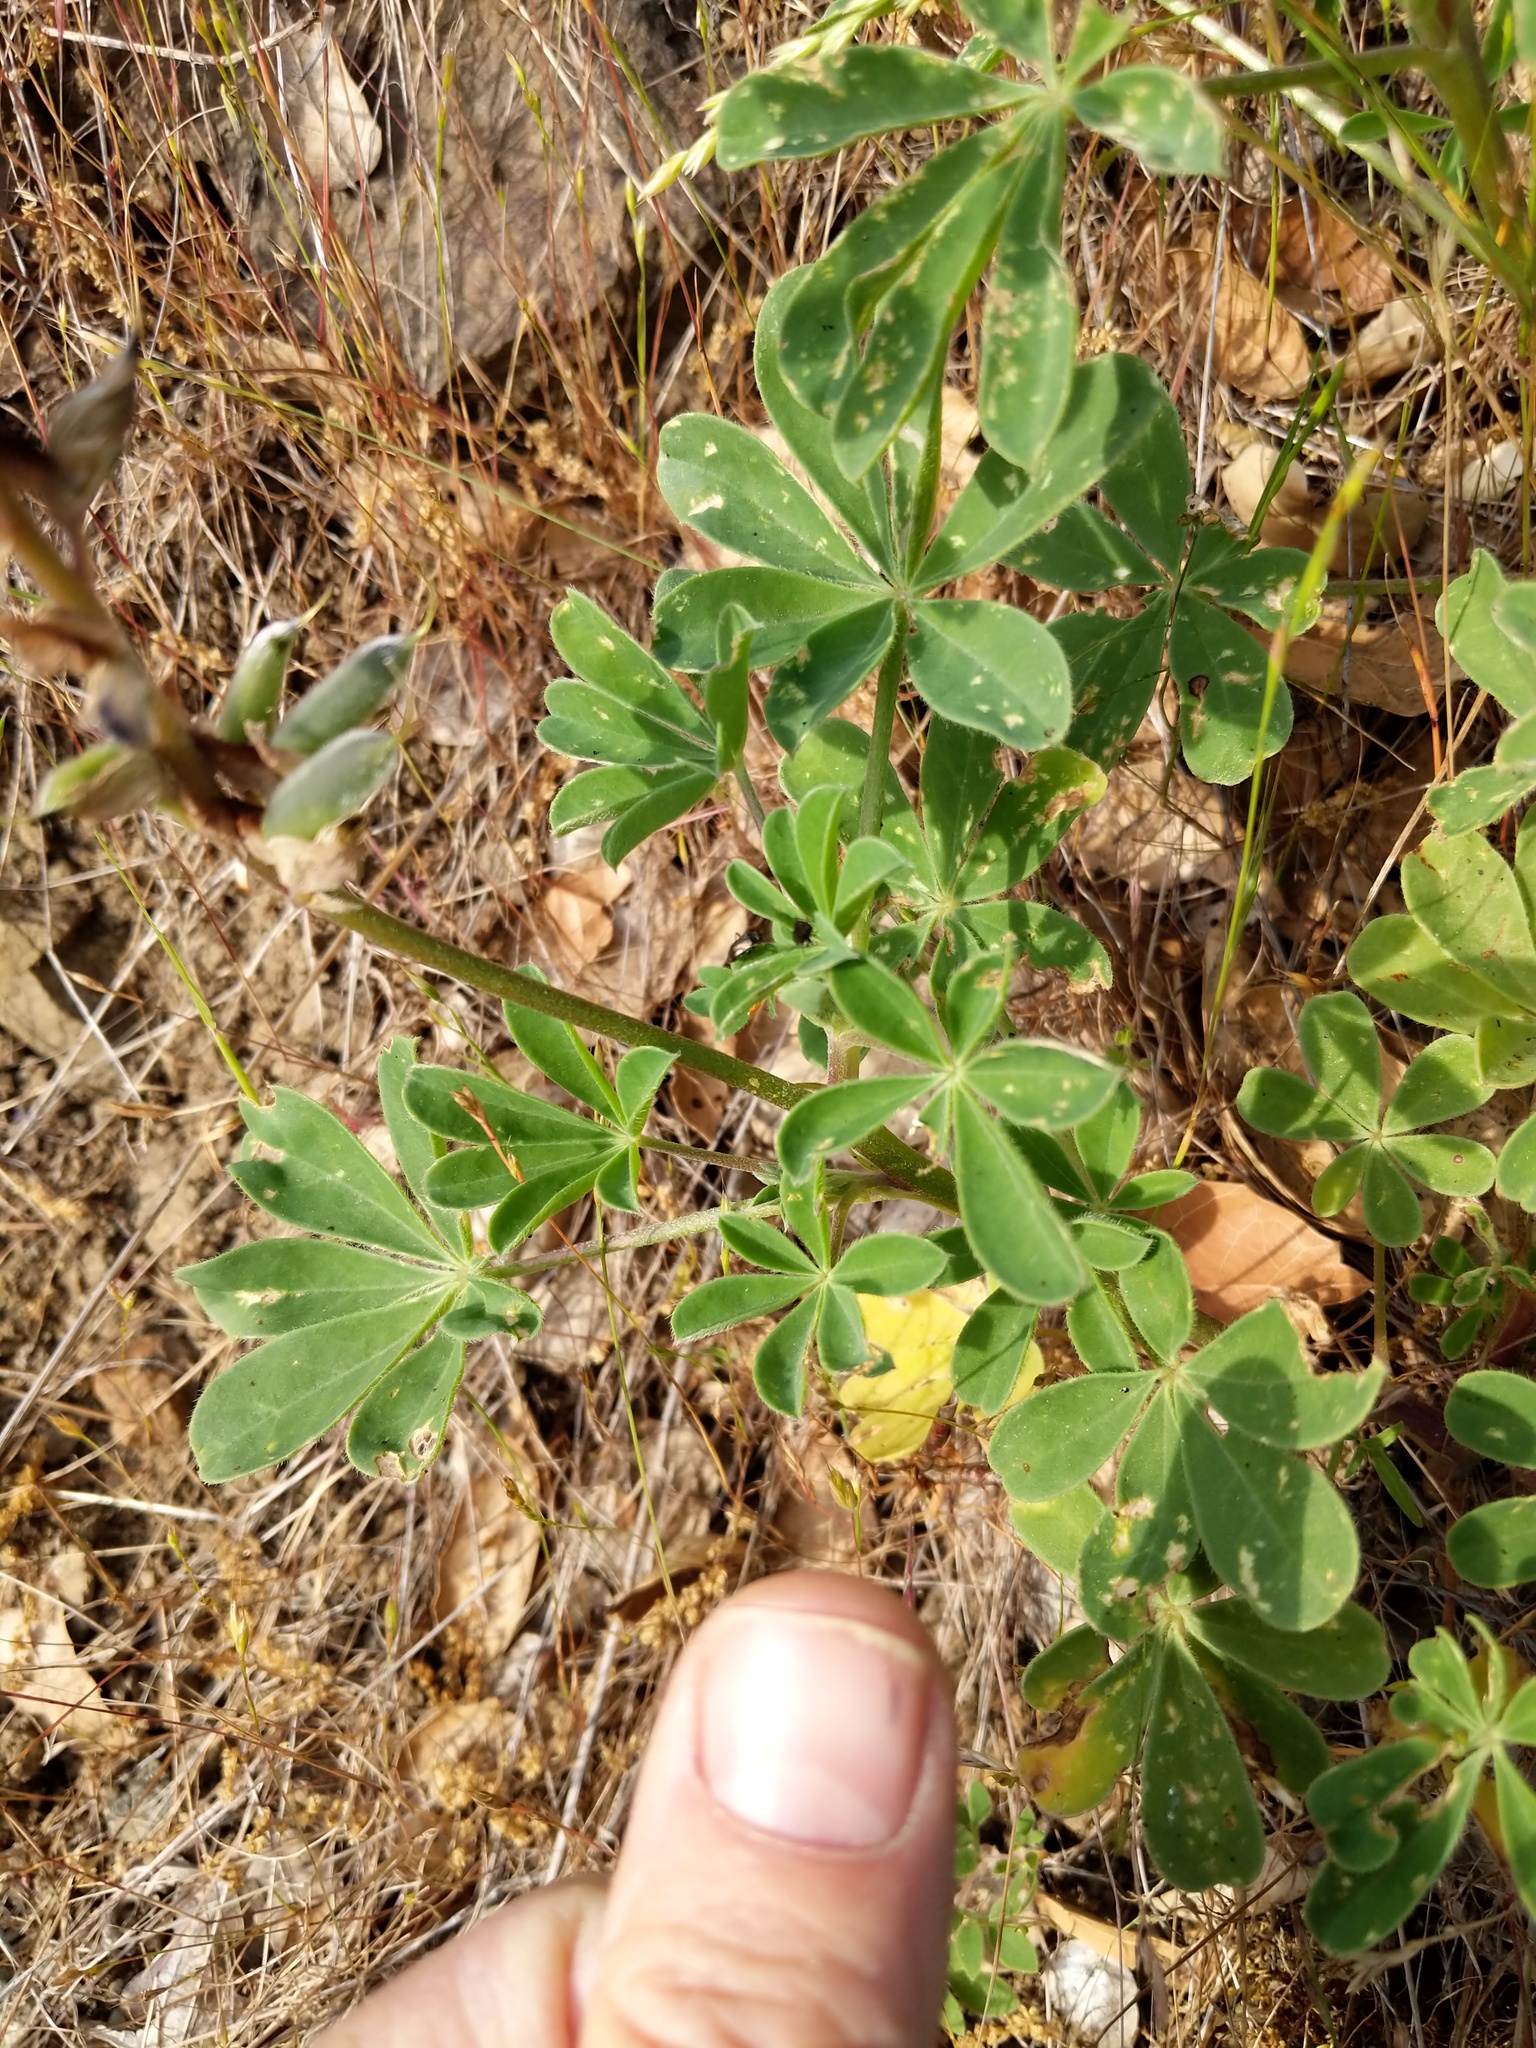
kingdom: Plantae
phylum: Tracheophyta
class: Magnoliopsida
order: Fabales
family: Fabaceae
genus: Lupinus
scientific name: Lupinus succulentus
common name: Arroyo lupine
